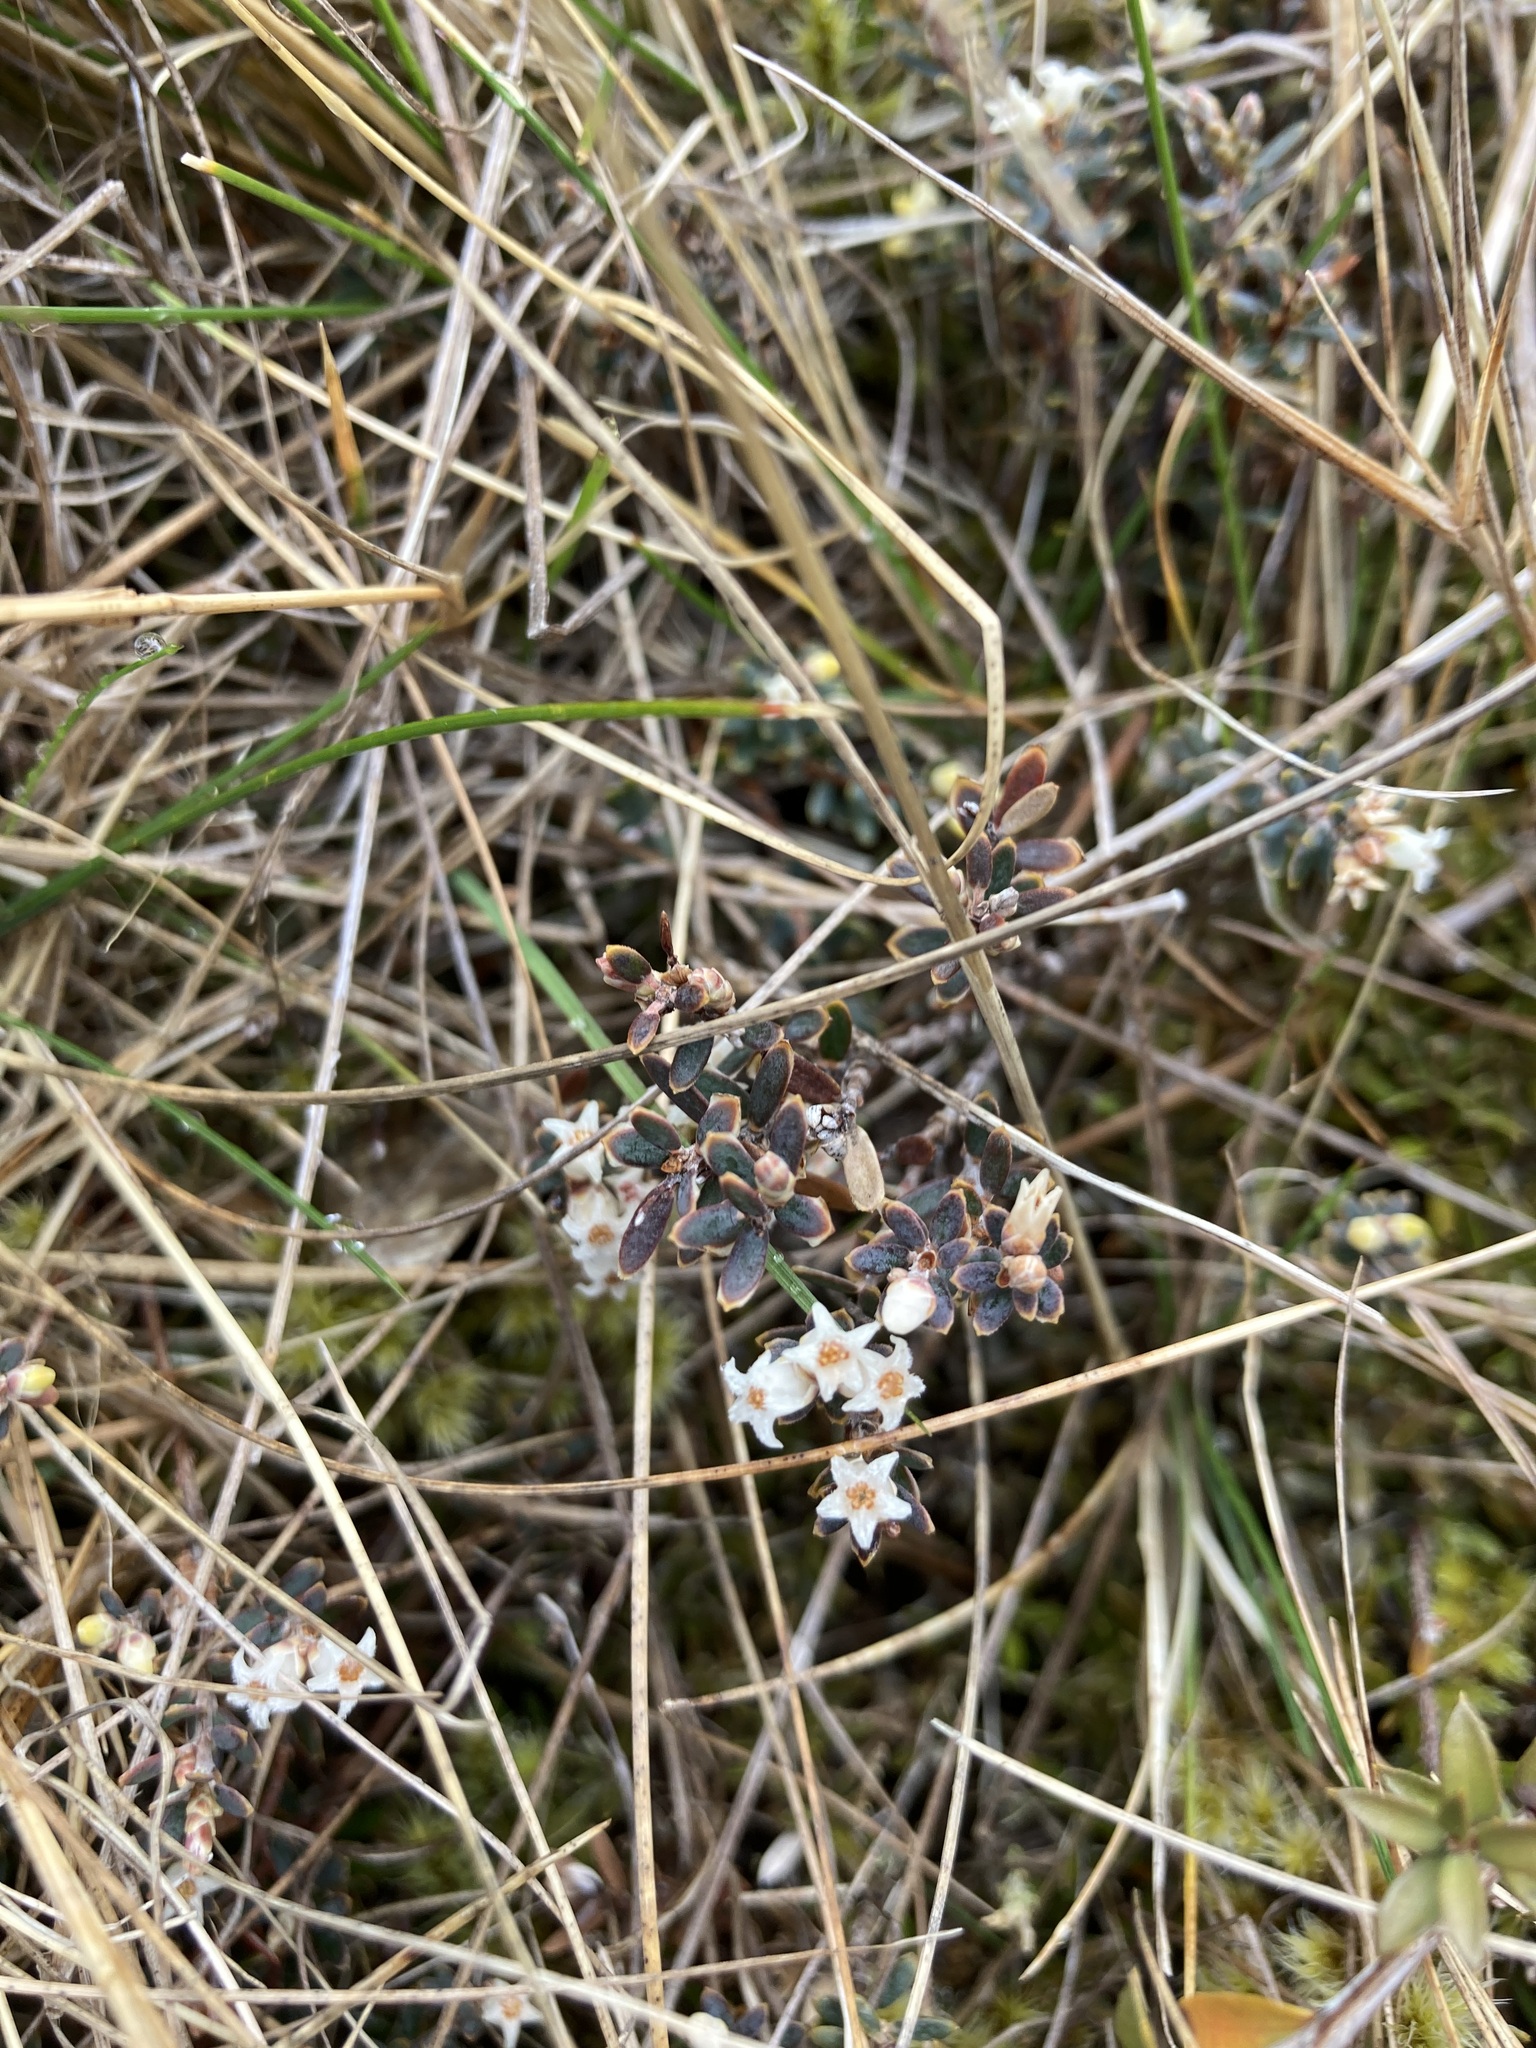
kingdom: Plantae
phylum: Tracheophyta
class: Magnoliopsida
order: Ericales
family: Ericaceae
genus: Acrothamnus
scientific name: Acrothamnus colensoi
